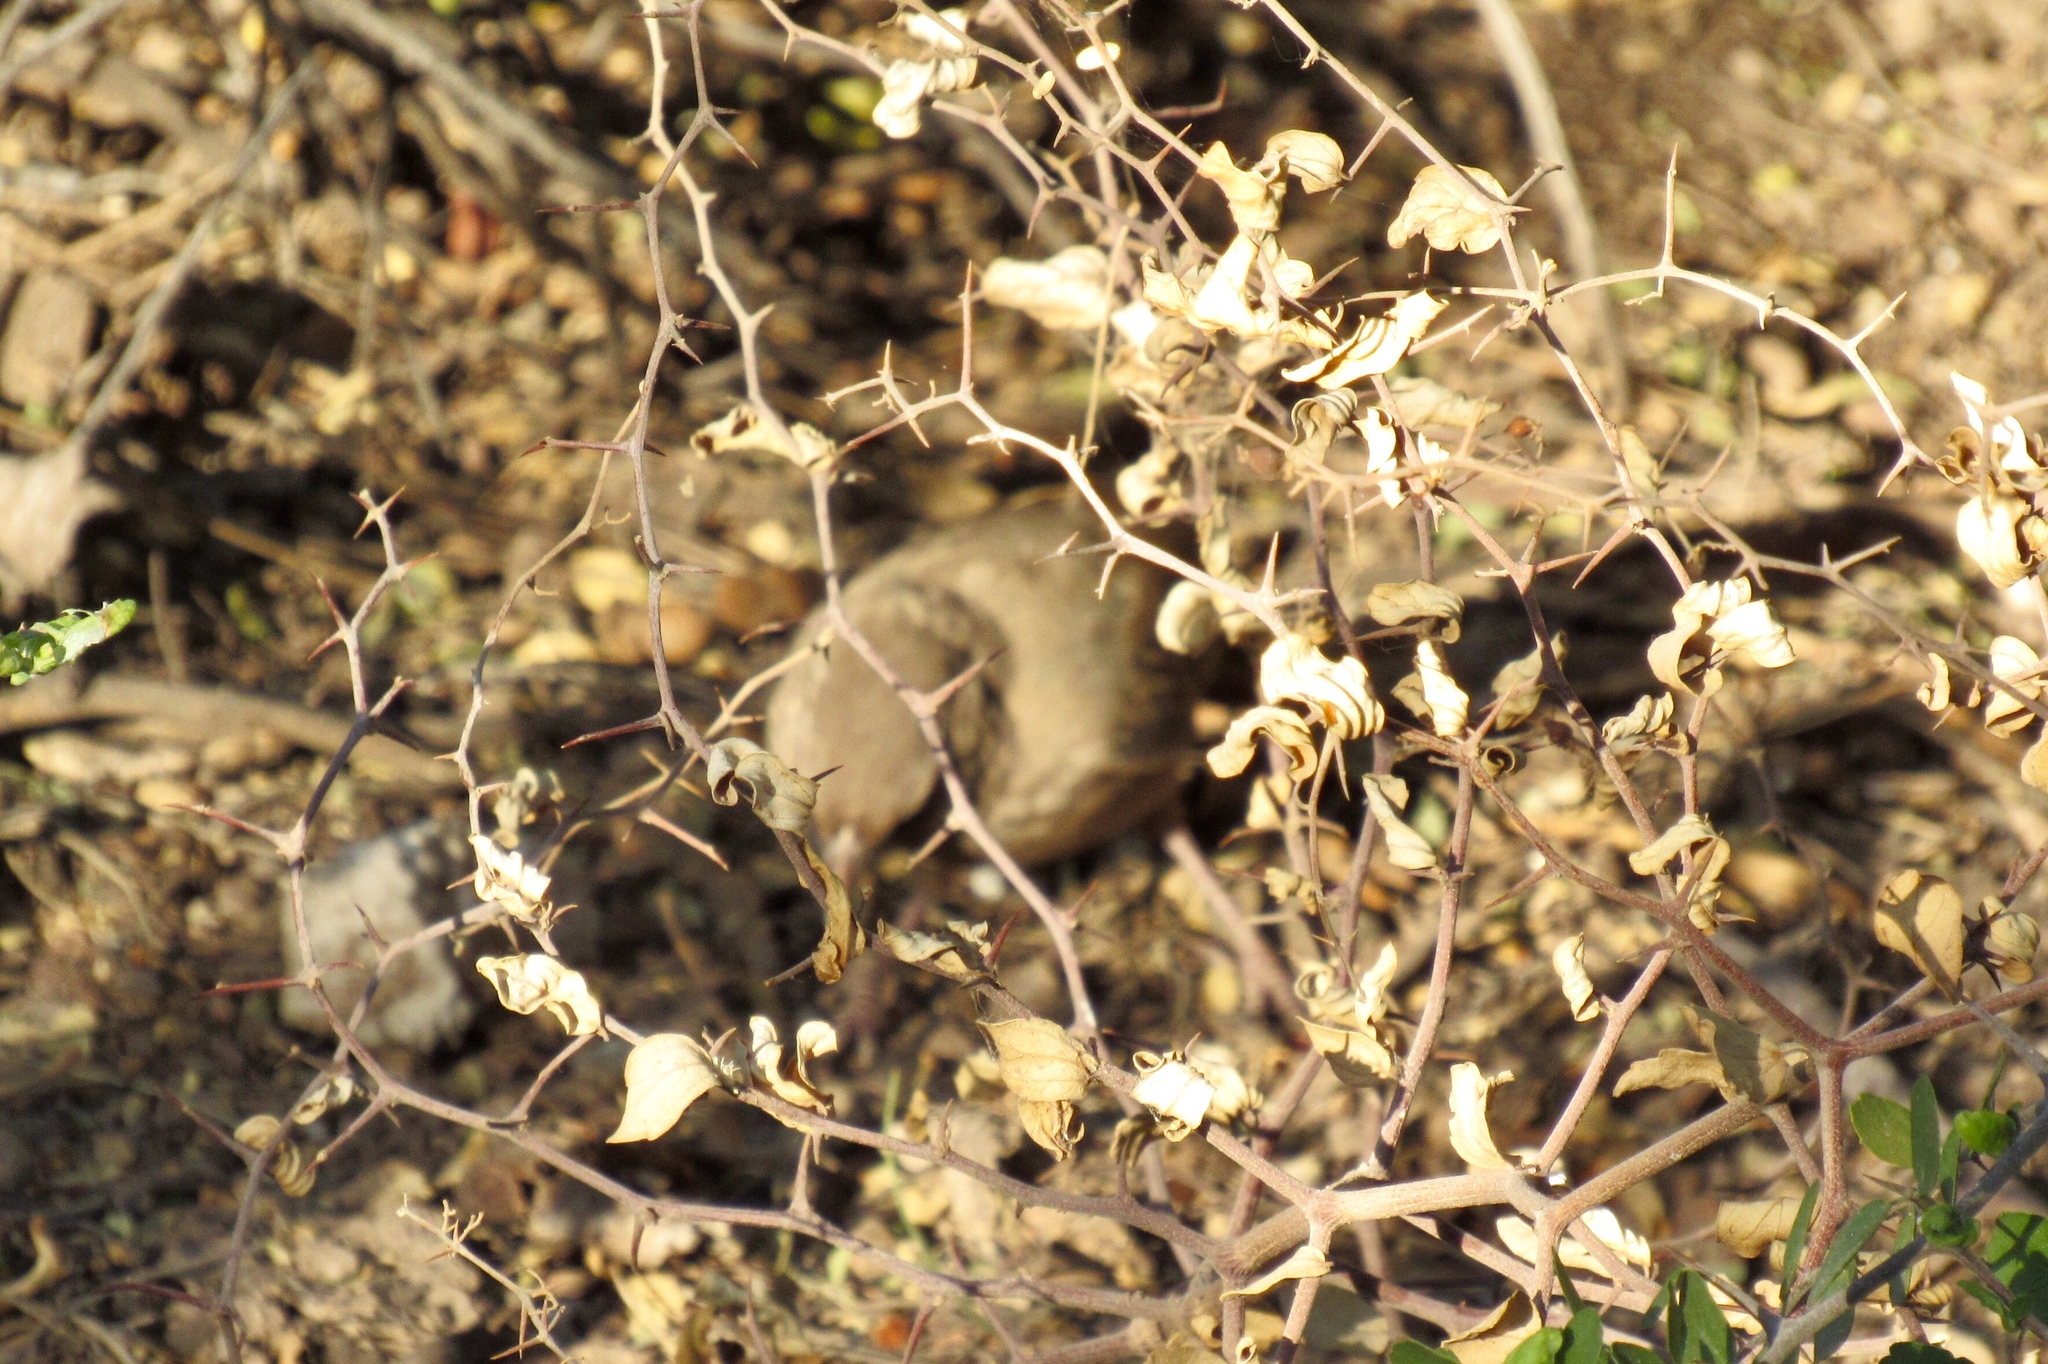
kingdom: Animalia
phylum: Chordata
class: Aves
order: Passeriformes
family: Passerellidae
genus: Melozone
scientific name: Melozone aberti
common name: Abert's towhee
